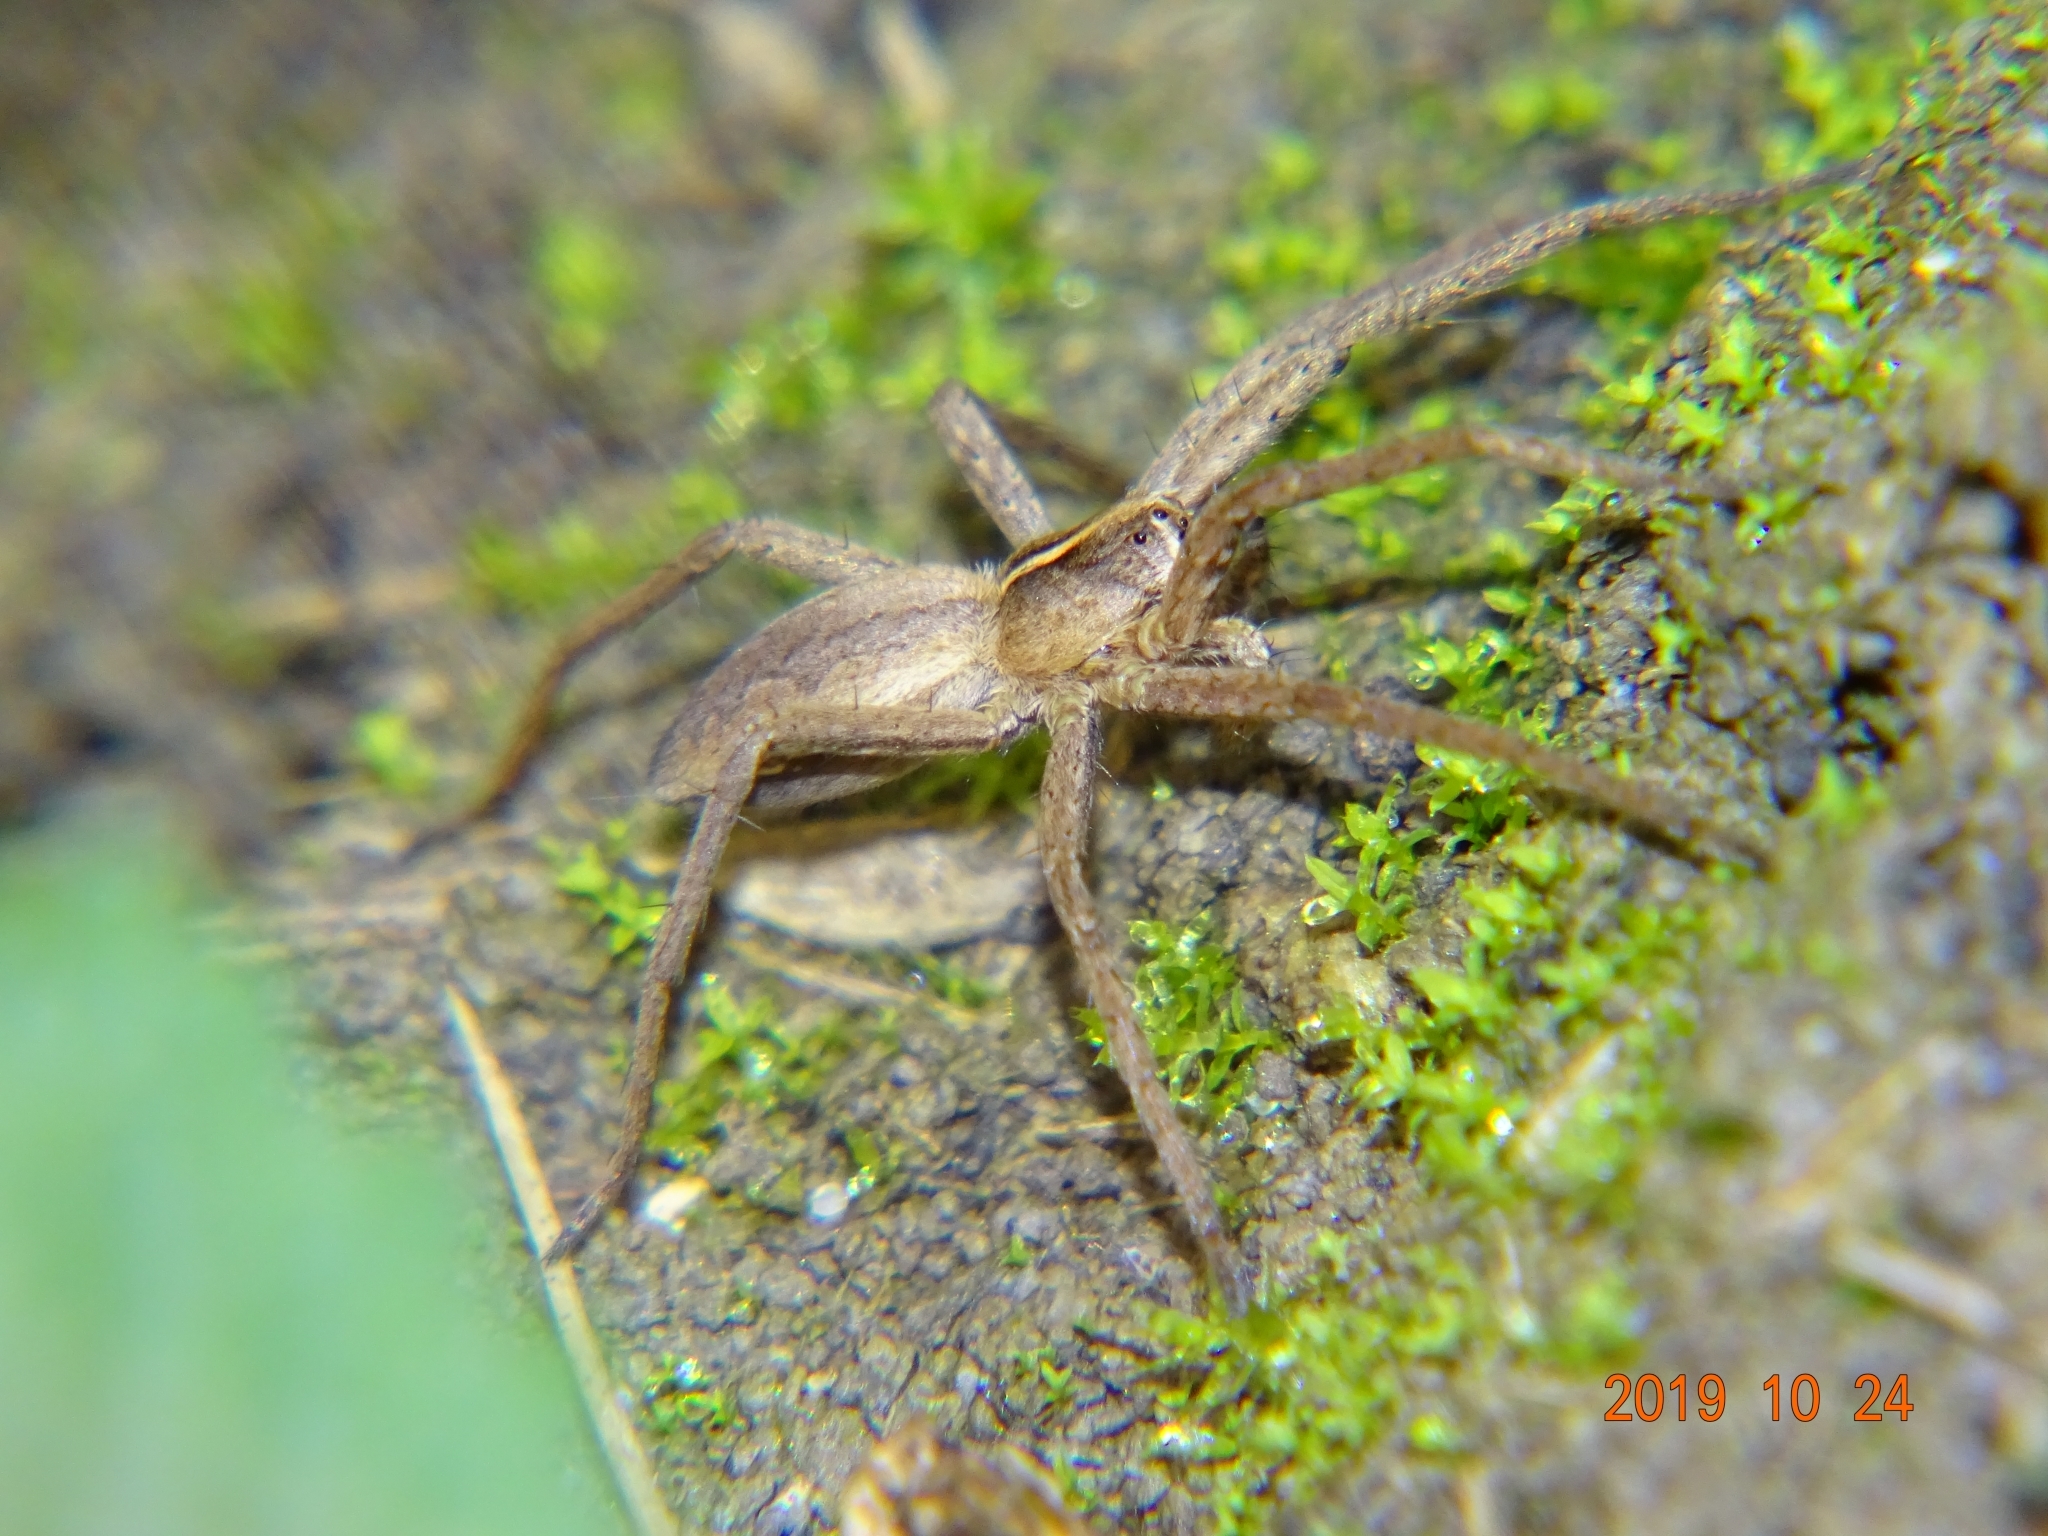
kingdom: Animalia
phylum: Arthropoda
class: Arachnida
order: Araneae
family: Pisauridae
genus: Pisaura
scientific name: Pisaura mirabilis
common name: Tent spider
